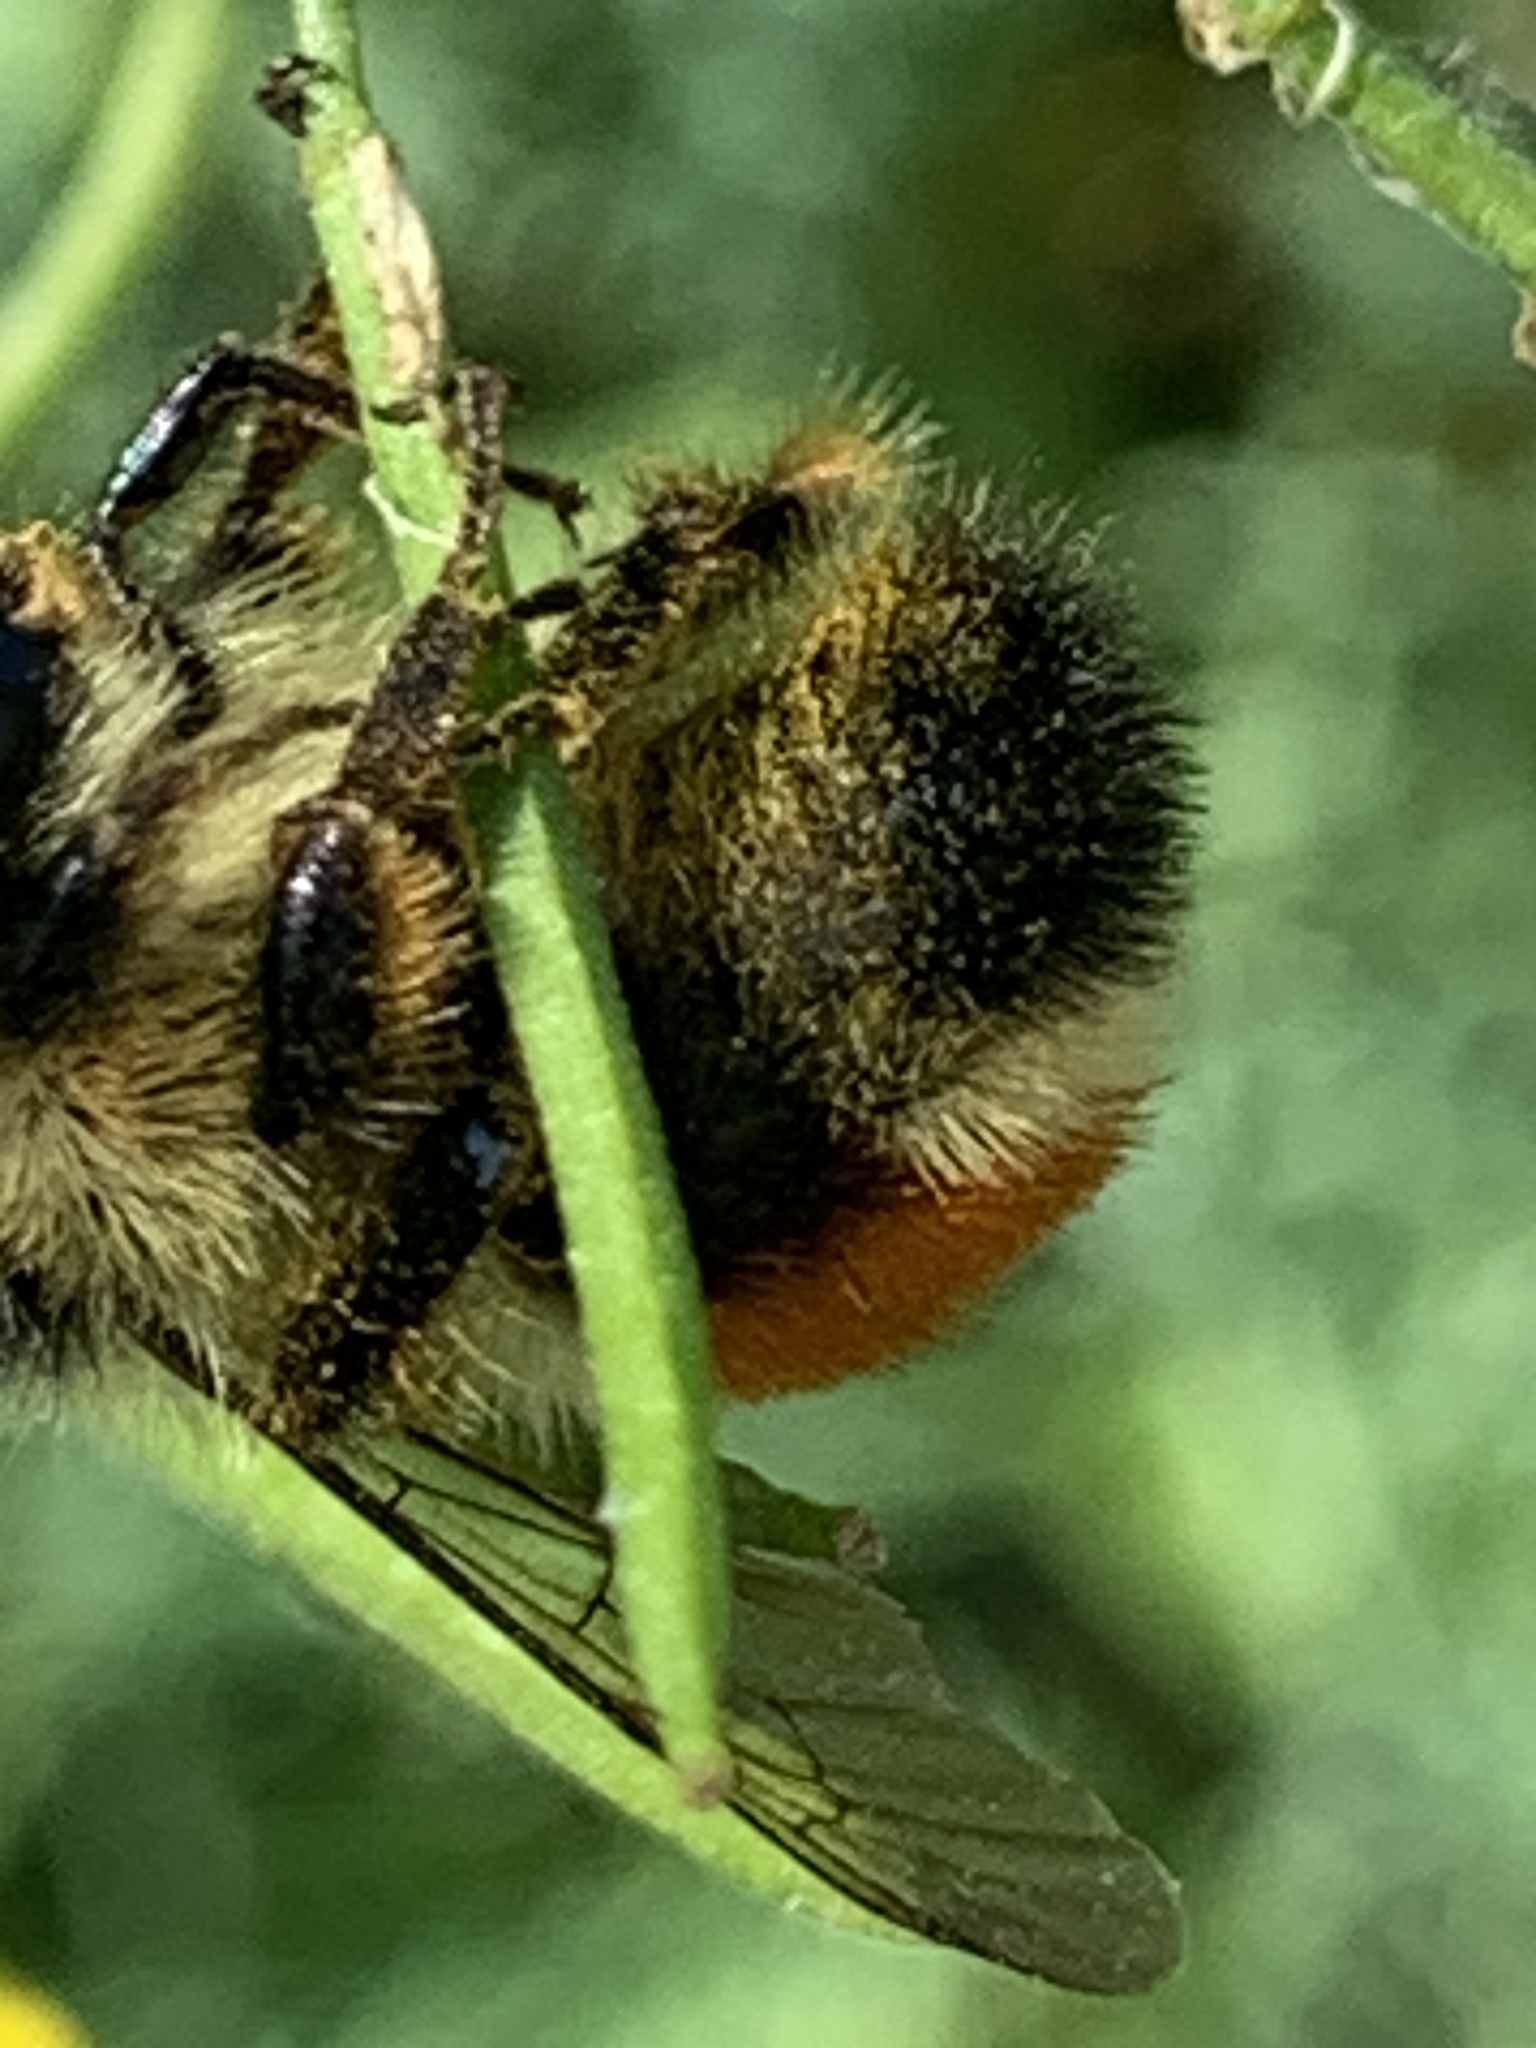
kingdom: Animalia
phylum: Arthropoda
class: Insecta
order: Hymenoptera
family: Apidae
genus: Bombus
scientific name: Bombus ternarius
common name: Tri-colored bumble bee
